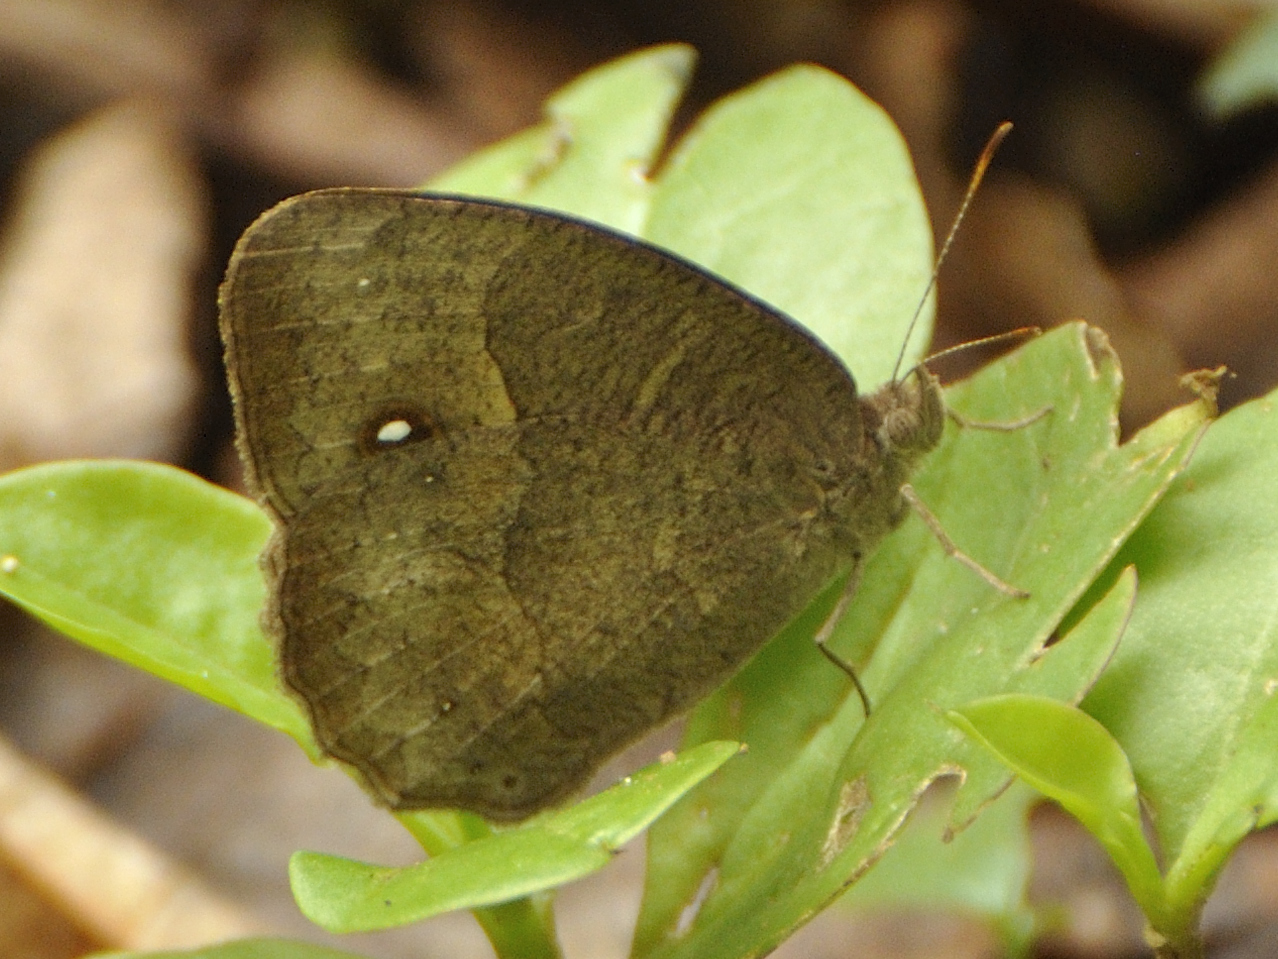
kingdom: Animalia
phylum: Arthropoda
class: Insecta
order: Lepidoptera
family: Nymphalidae
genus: Mycalesis
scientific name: Mycalesis anynana
